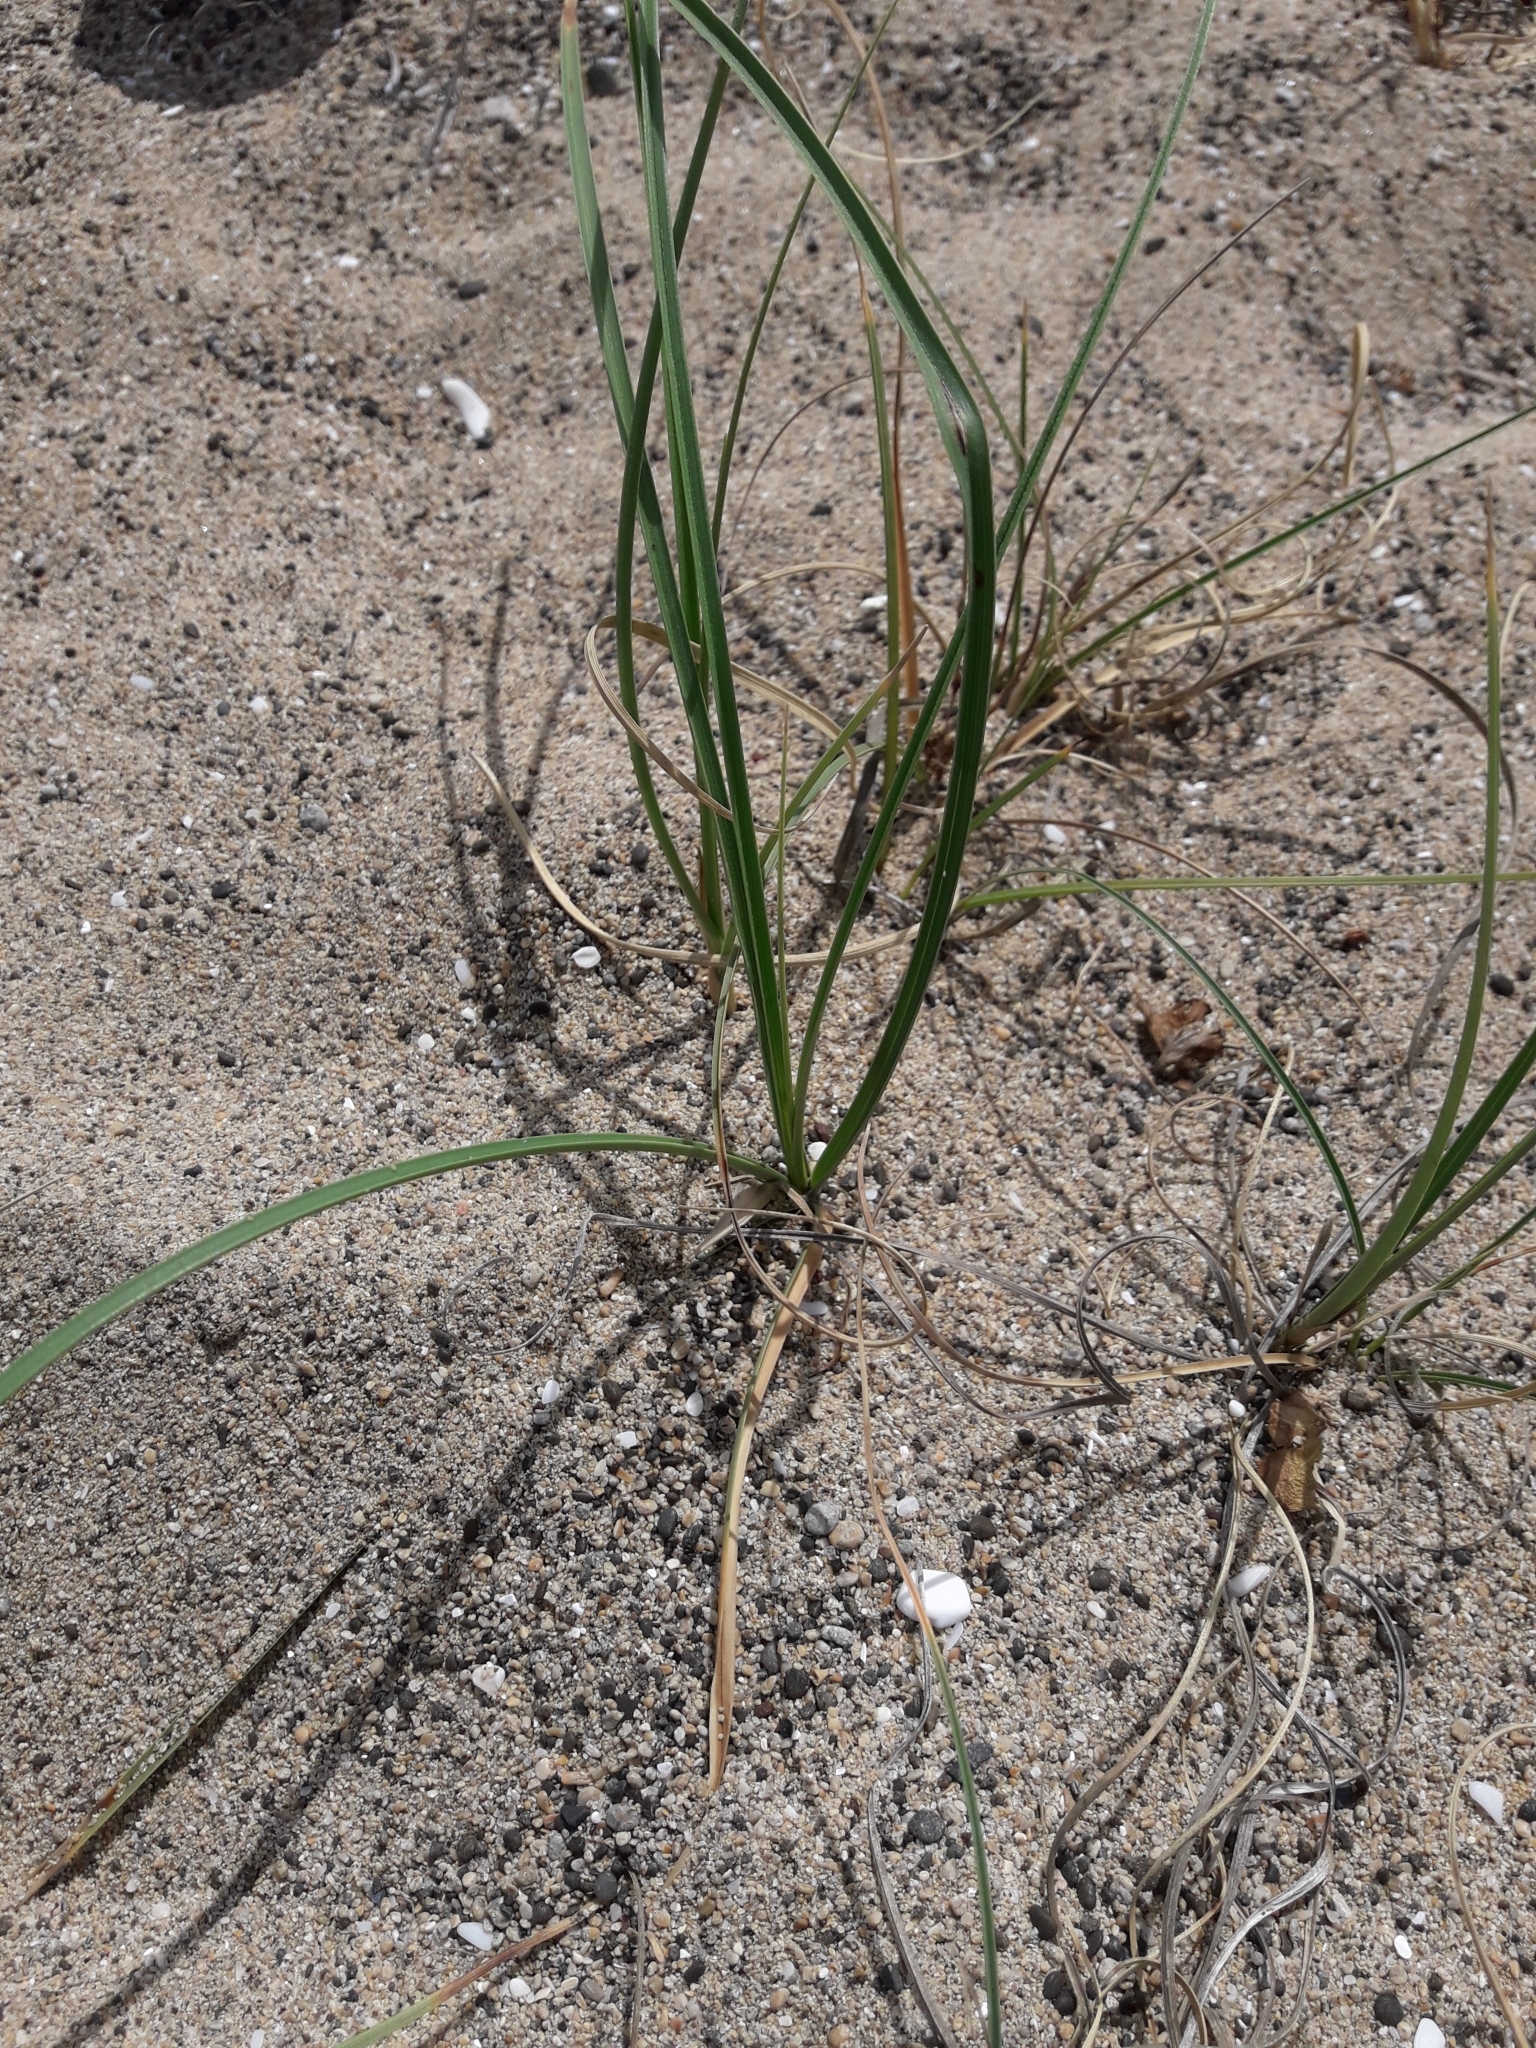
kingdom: Plantae
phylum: Tracheophyta
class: Liliopsida
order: Poales
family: Cyperaceae
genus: Carex
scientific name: Carex pumila
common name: Dwarf sedge
